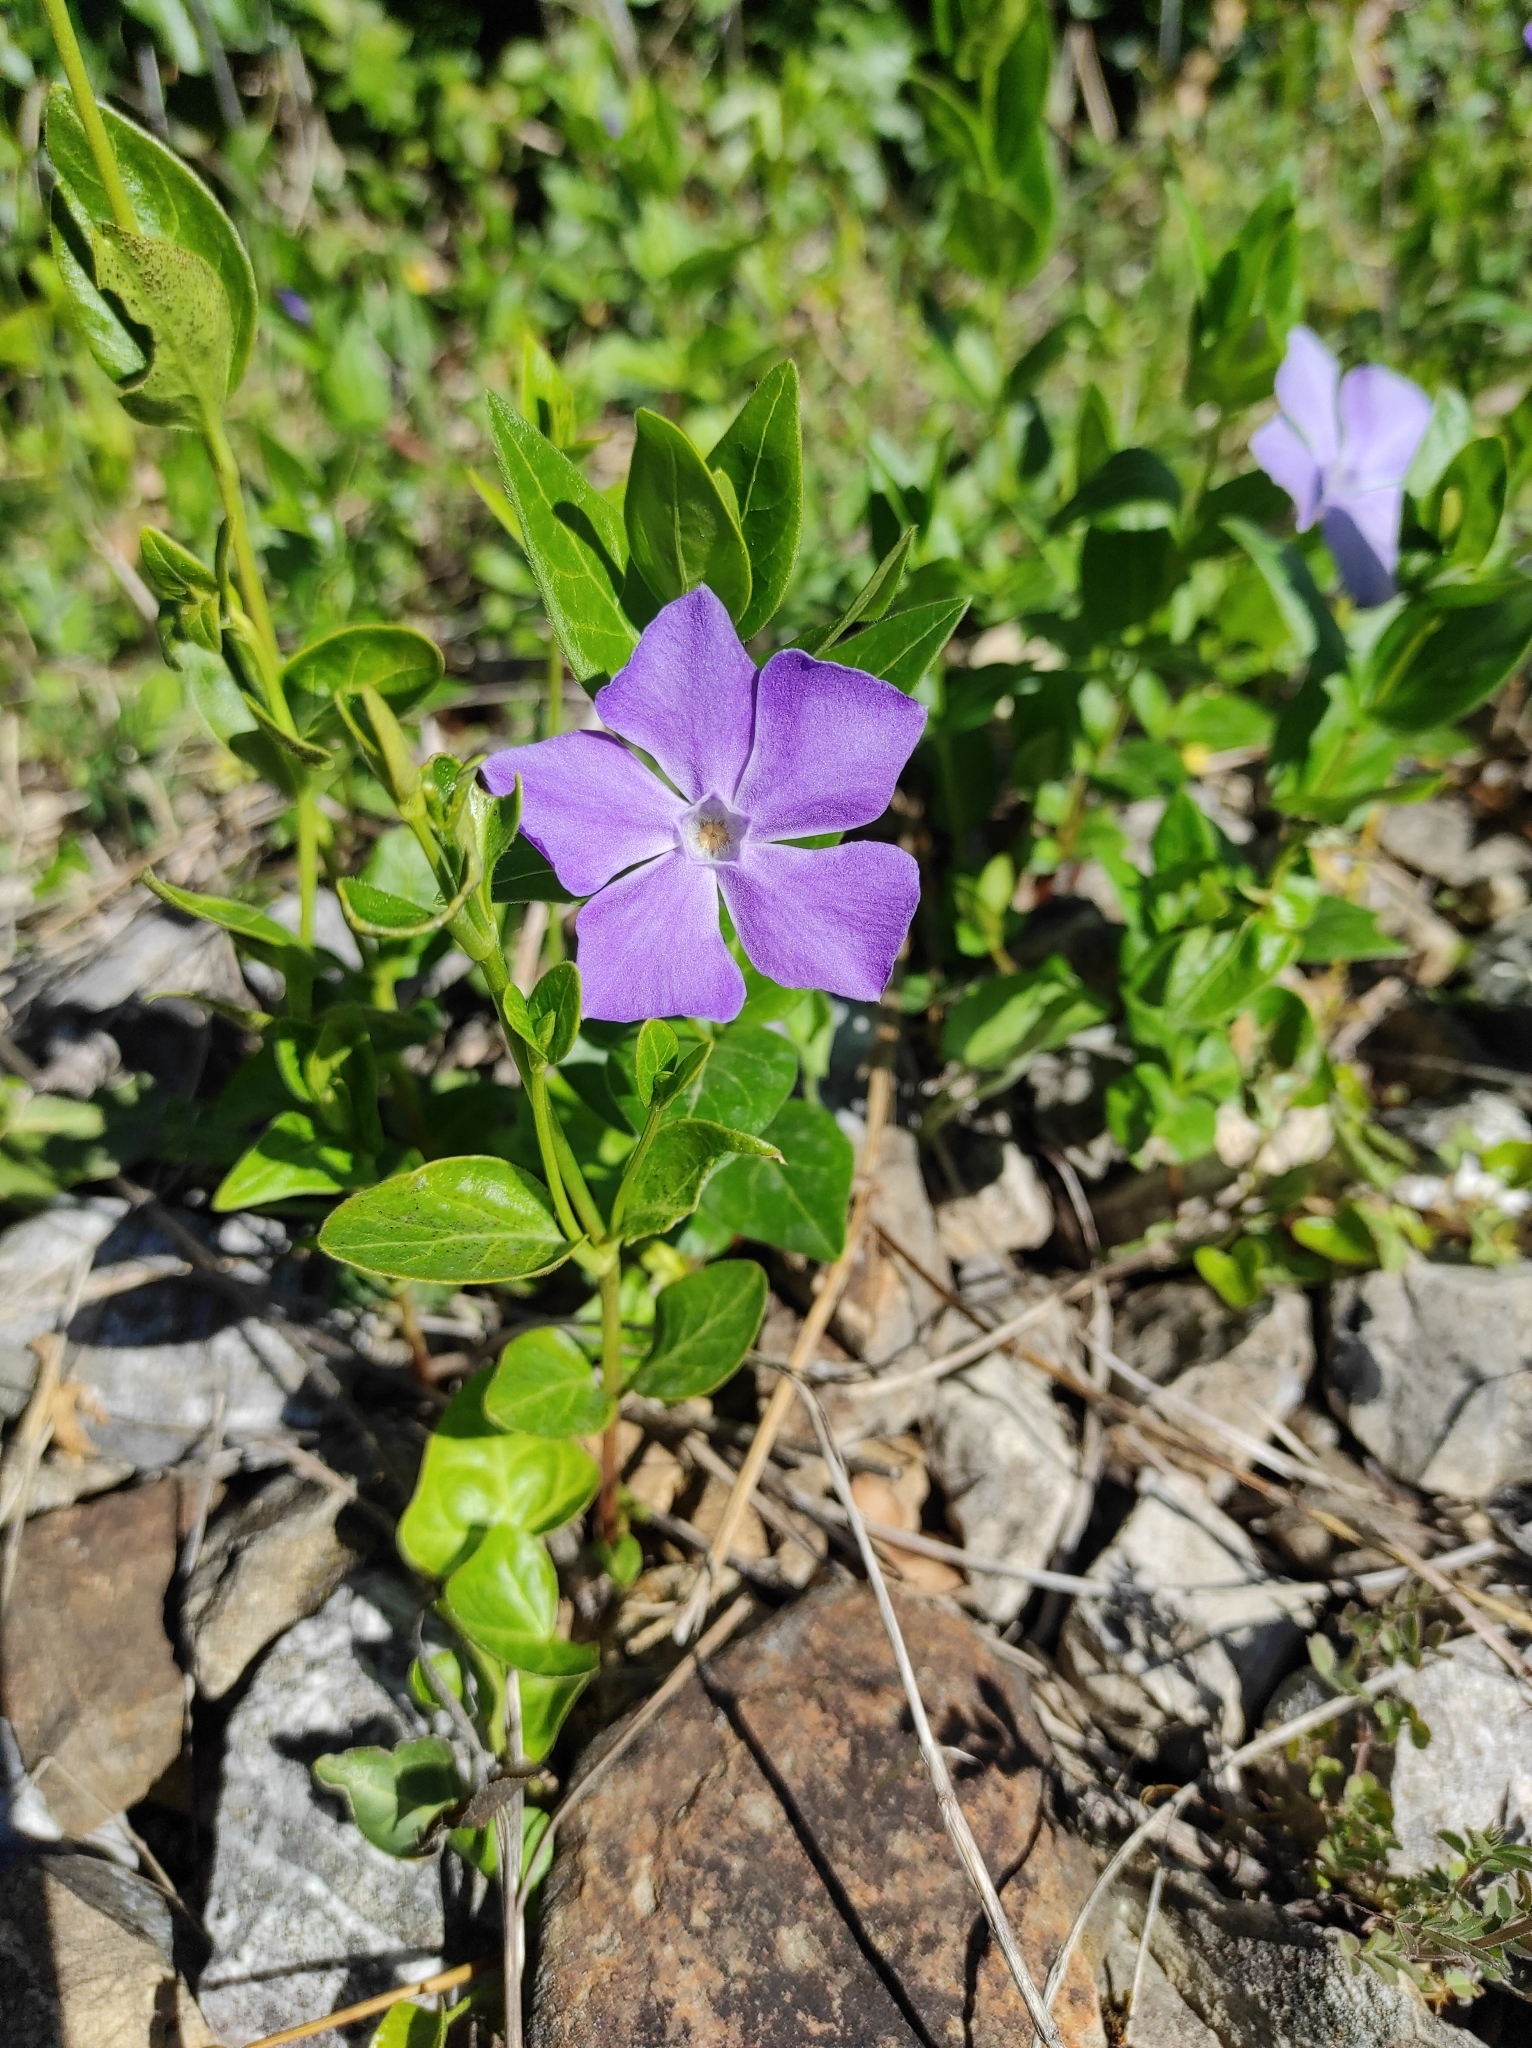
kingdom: Plantae
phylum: Tracheophyta
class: Magnoliopsida
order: Gentianales
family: Apocynaceae
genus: Vinca
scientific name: Vinca major
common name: Greater periwinkle
